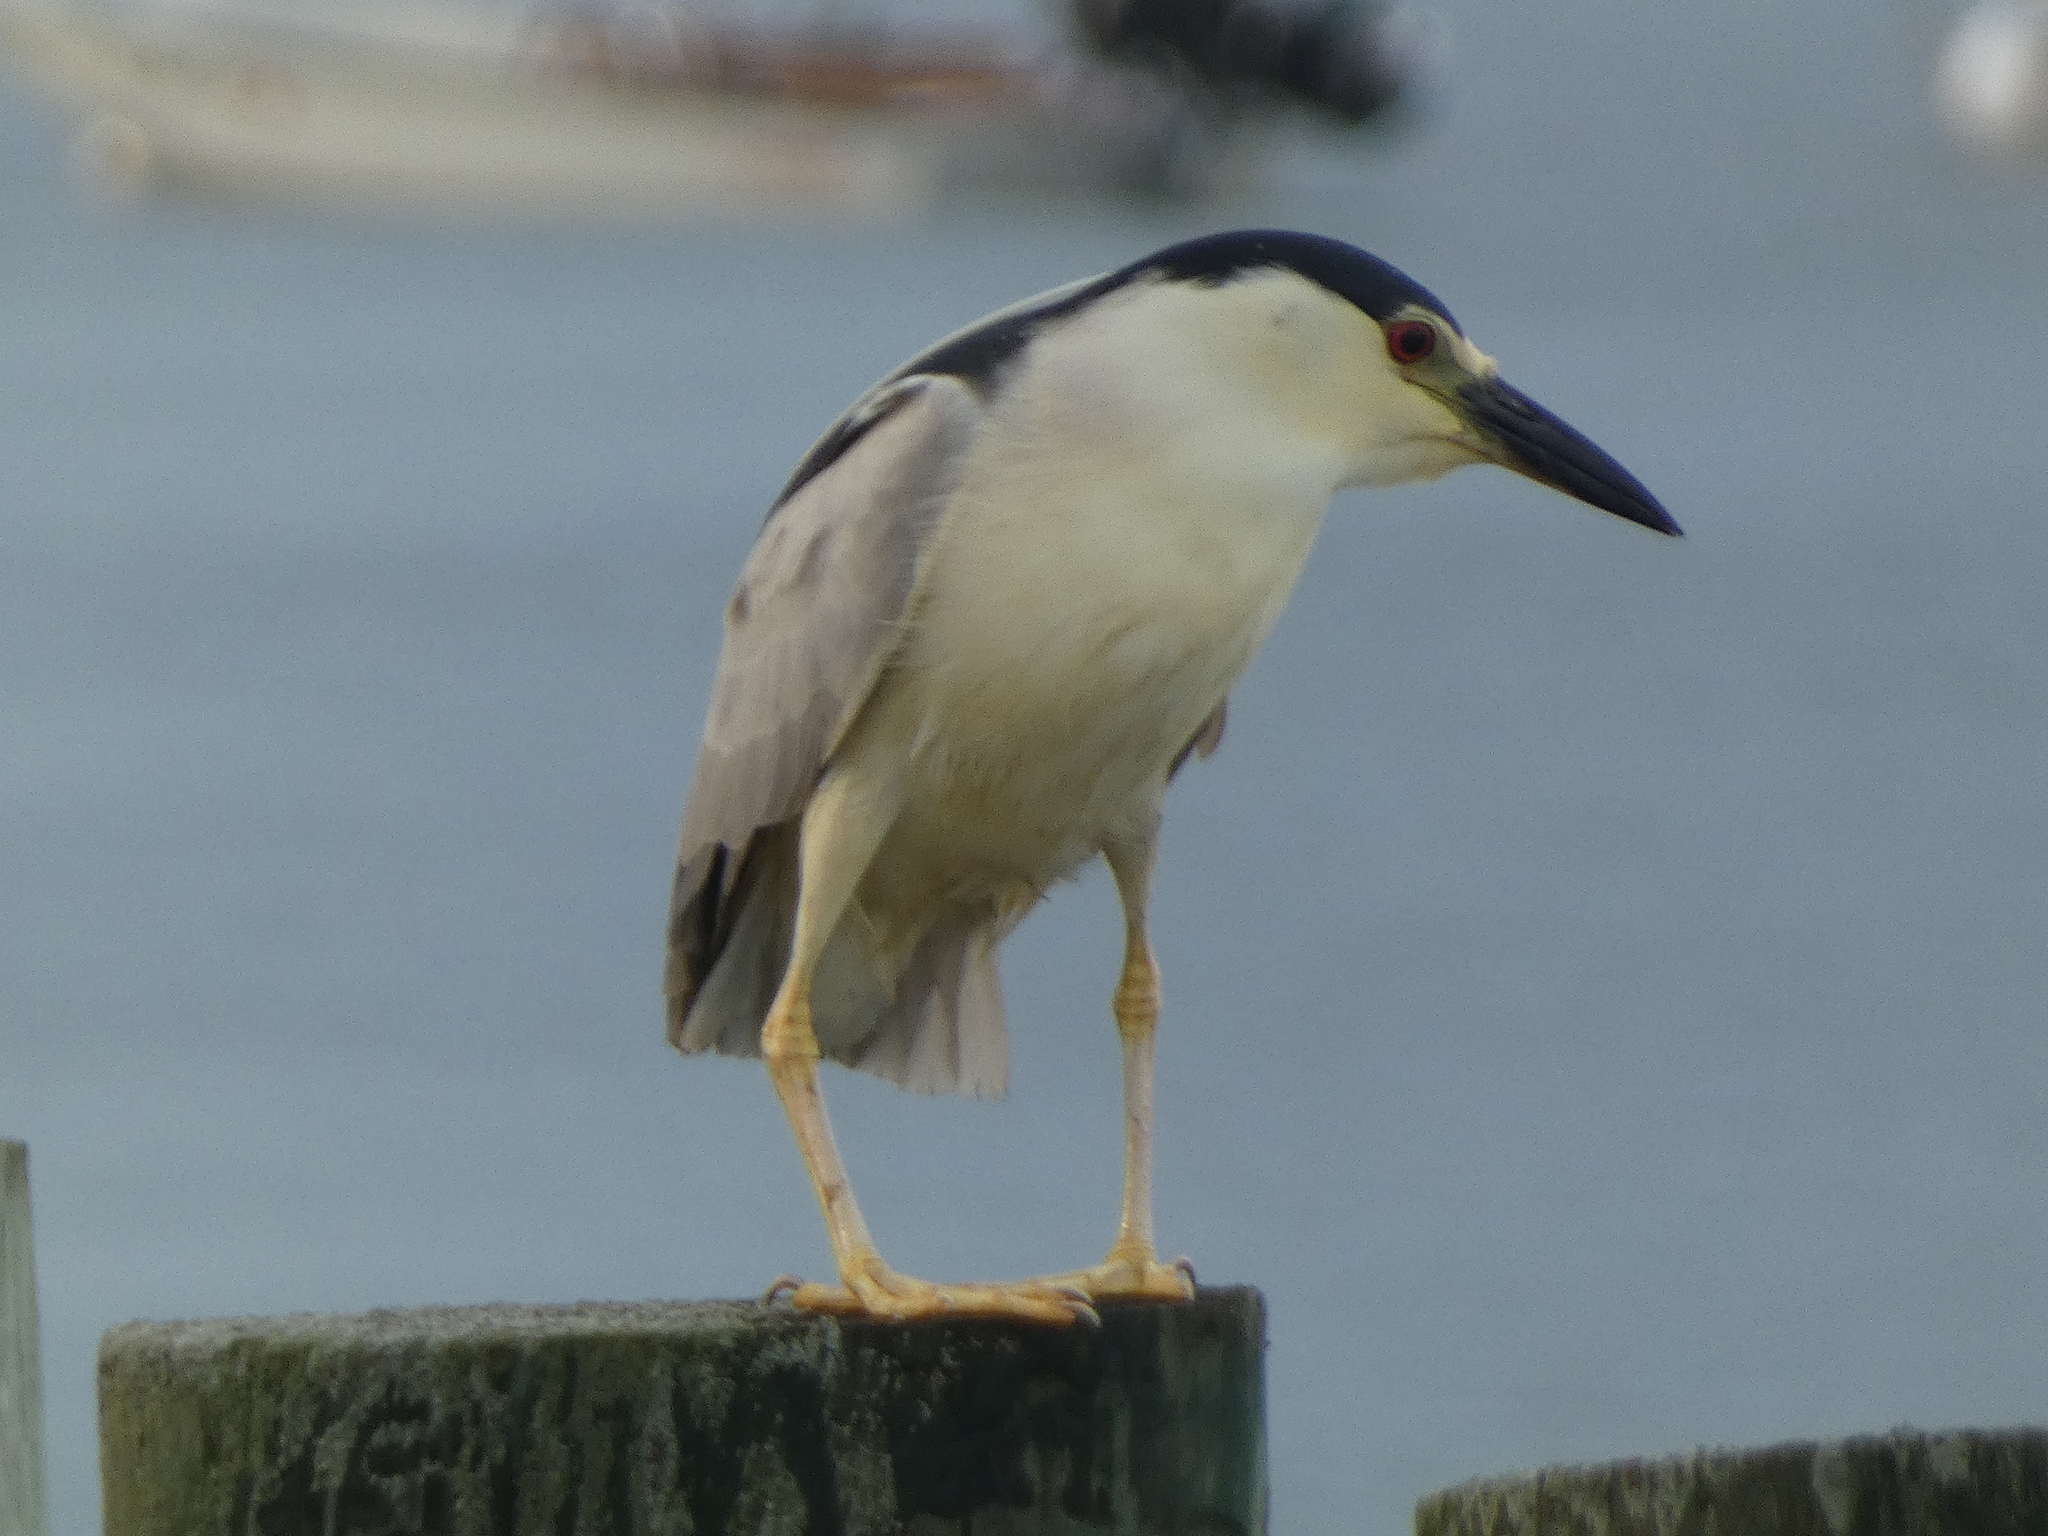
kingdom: Animalia
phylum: Chordata
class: Aves
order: Pelecaniformes
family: Ardeidae
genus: Nycticorax
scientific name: Nycticorax nycticorax
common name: Black-crowned night heron
